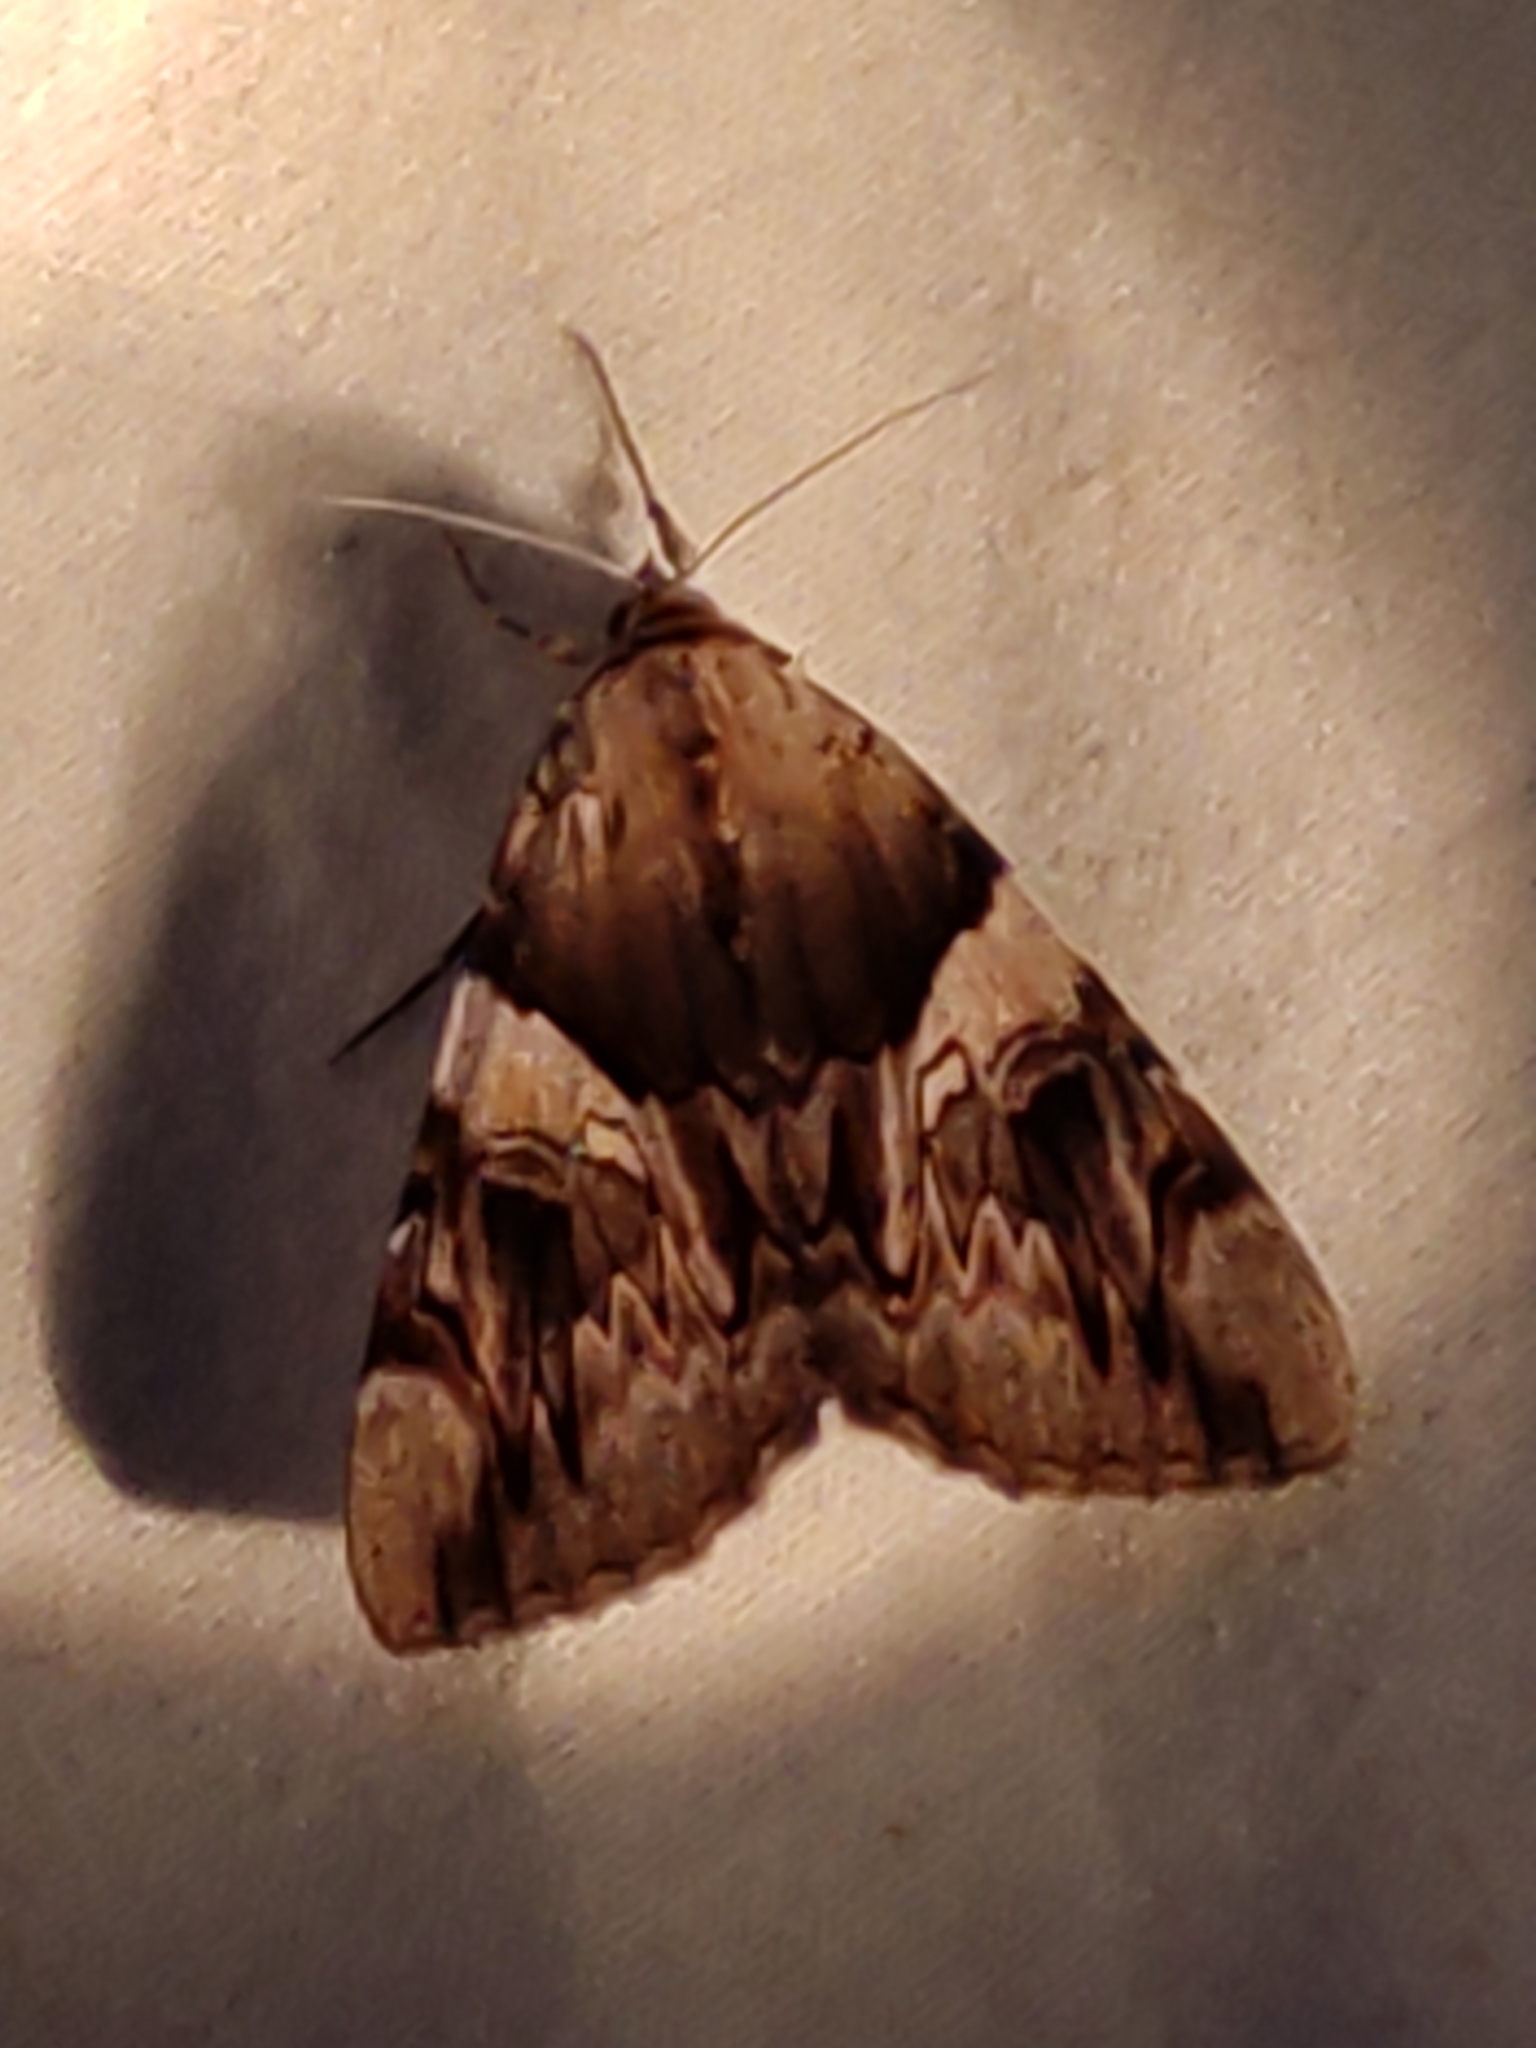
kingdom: Animalia
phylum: Arthropoda
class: Insecta
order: Lepidoptera
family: Erebidae
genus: Catocala
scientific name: Catocala fulminea
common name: Yellow bands underwing
